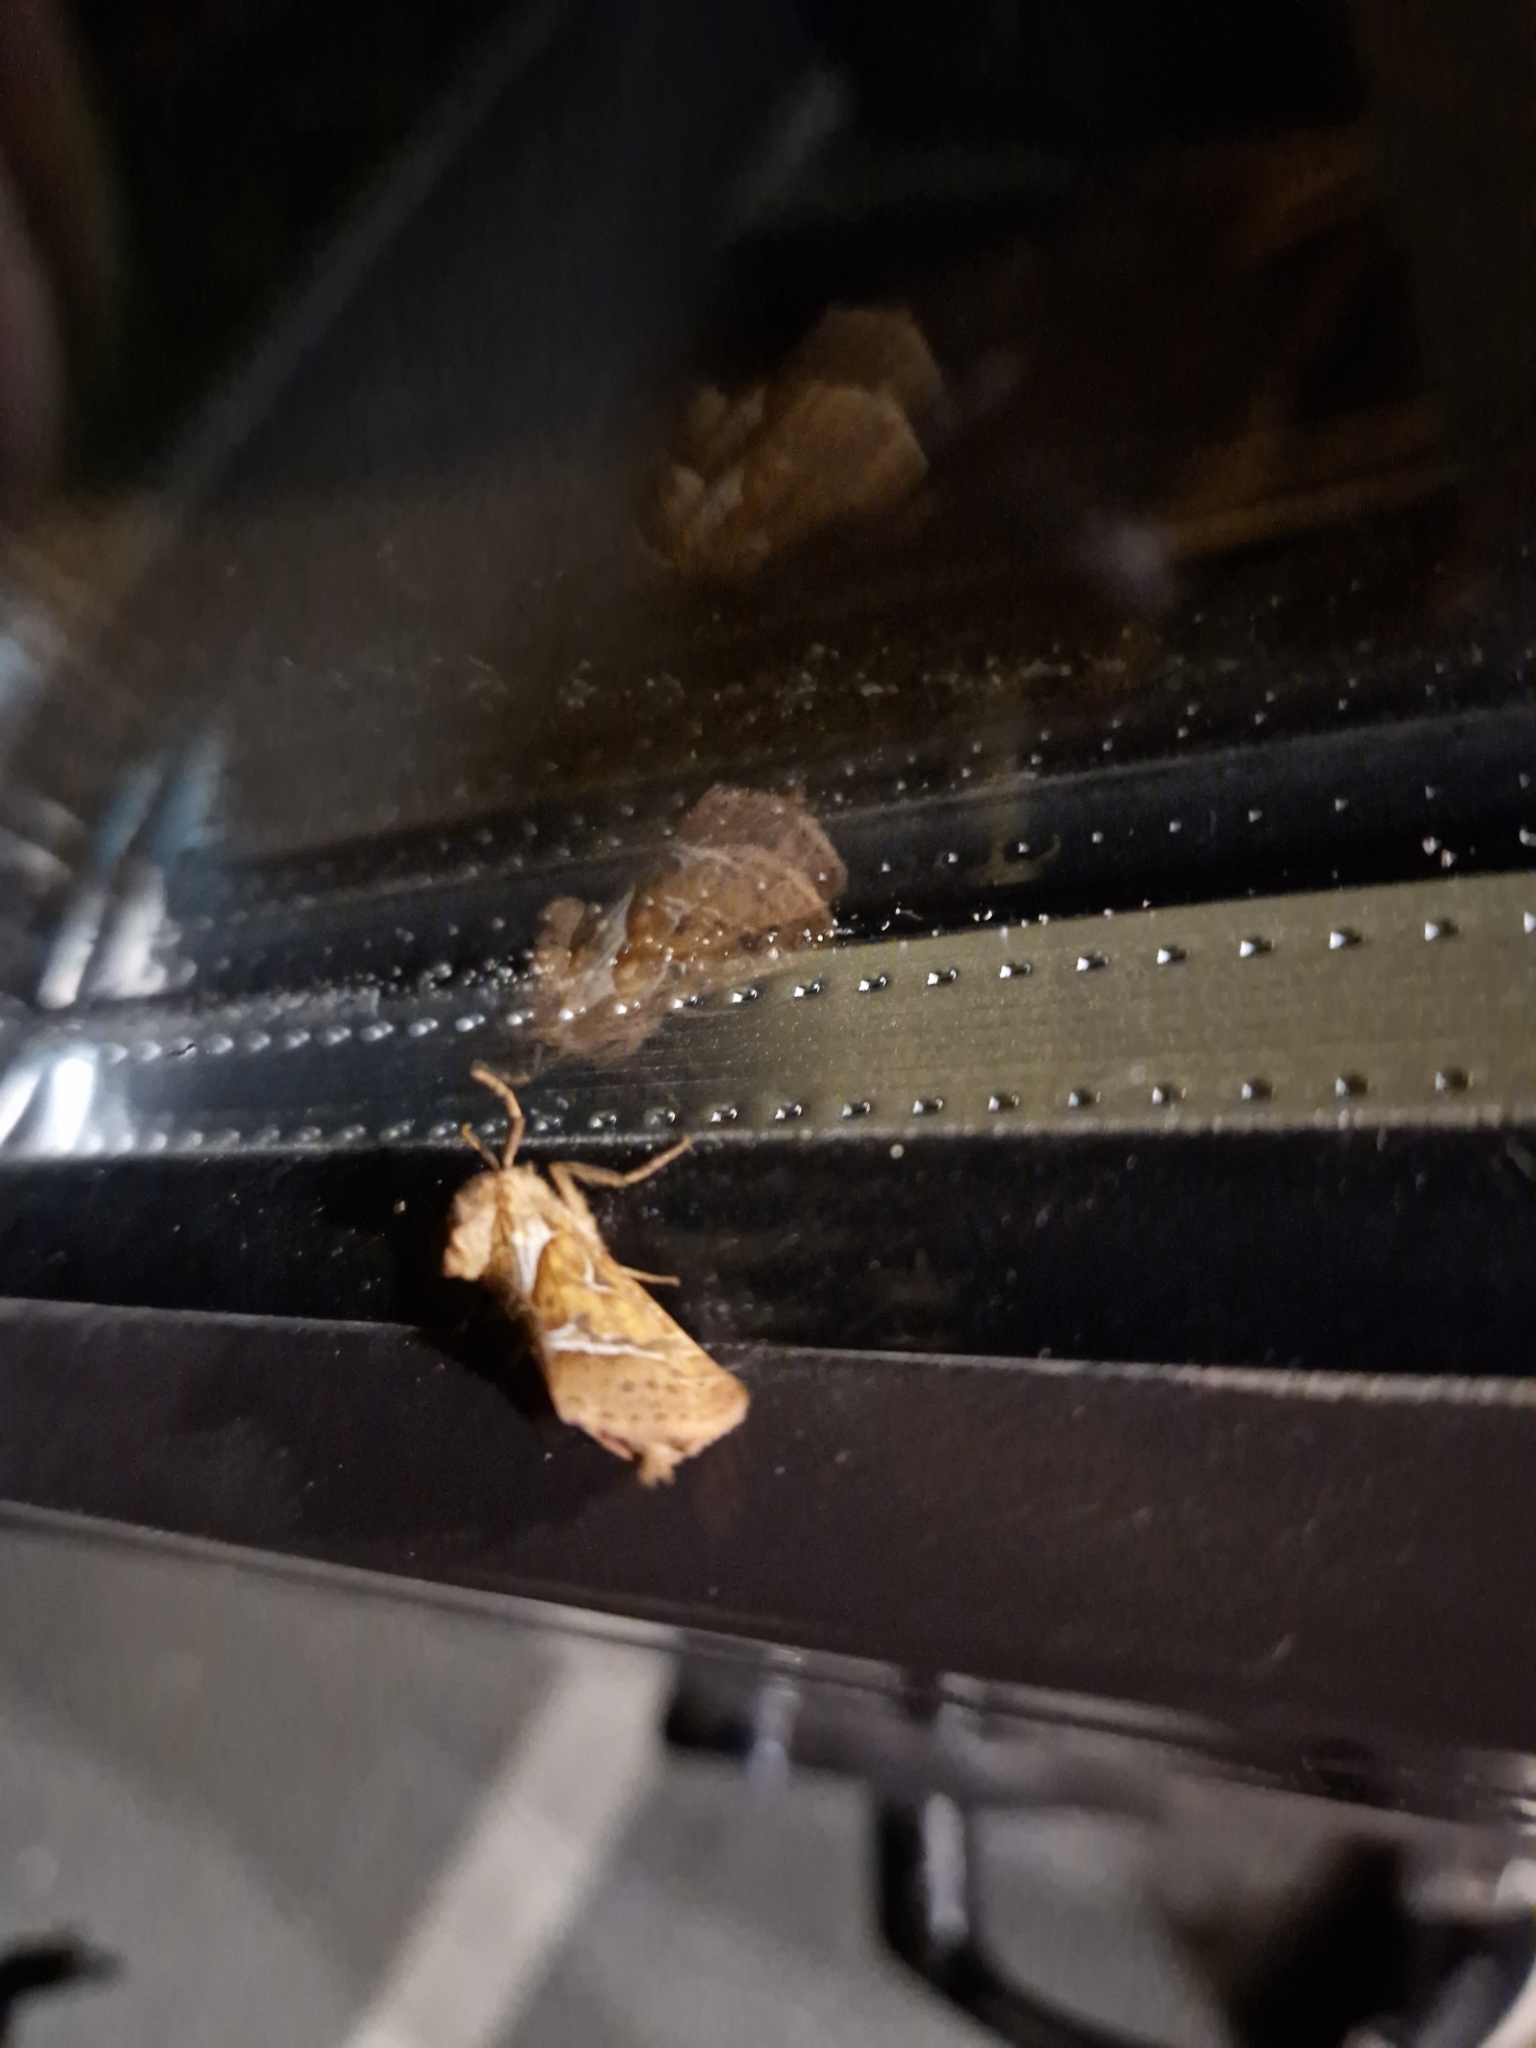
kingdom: Animalia
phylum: Arthropoda
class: Insecta
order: Lepidoptera
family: Hepialidae
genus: Triodia
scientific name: Triodia sylvina
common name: Orange swift
